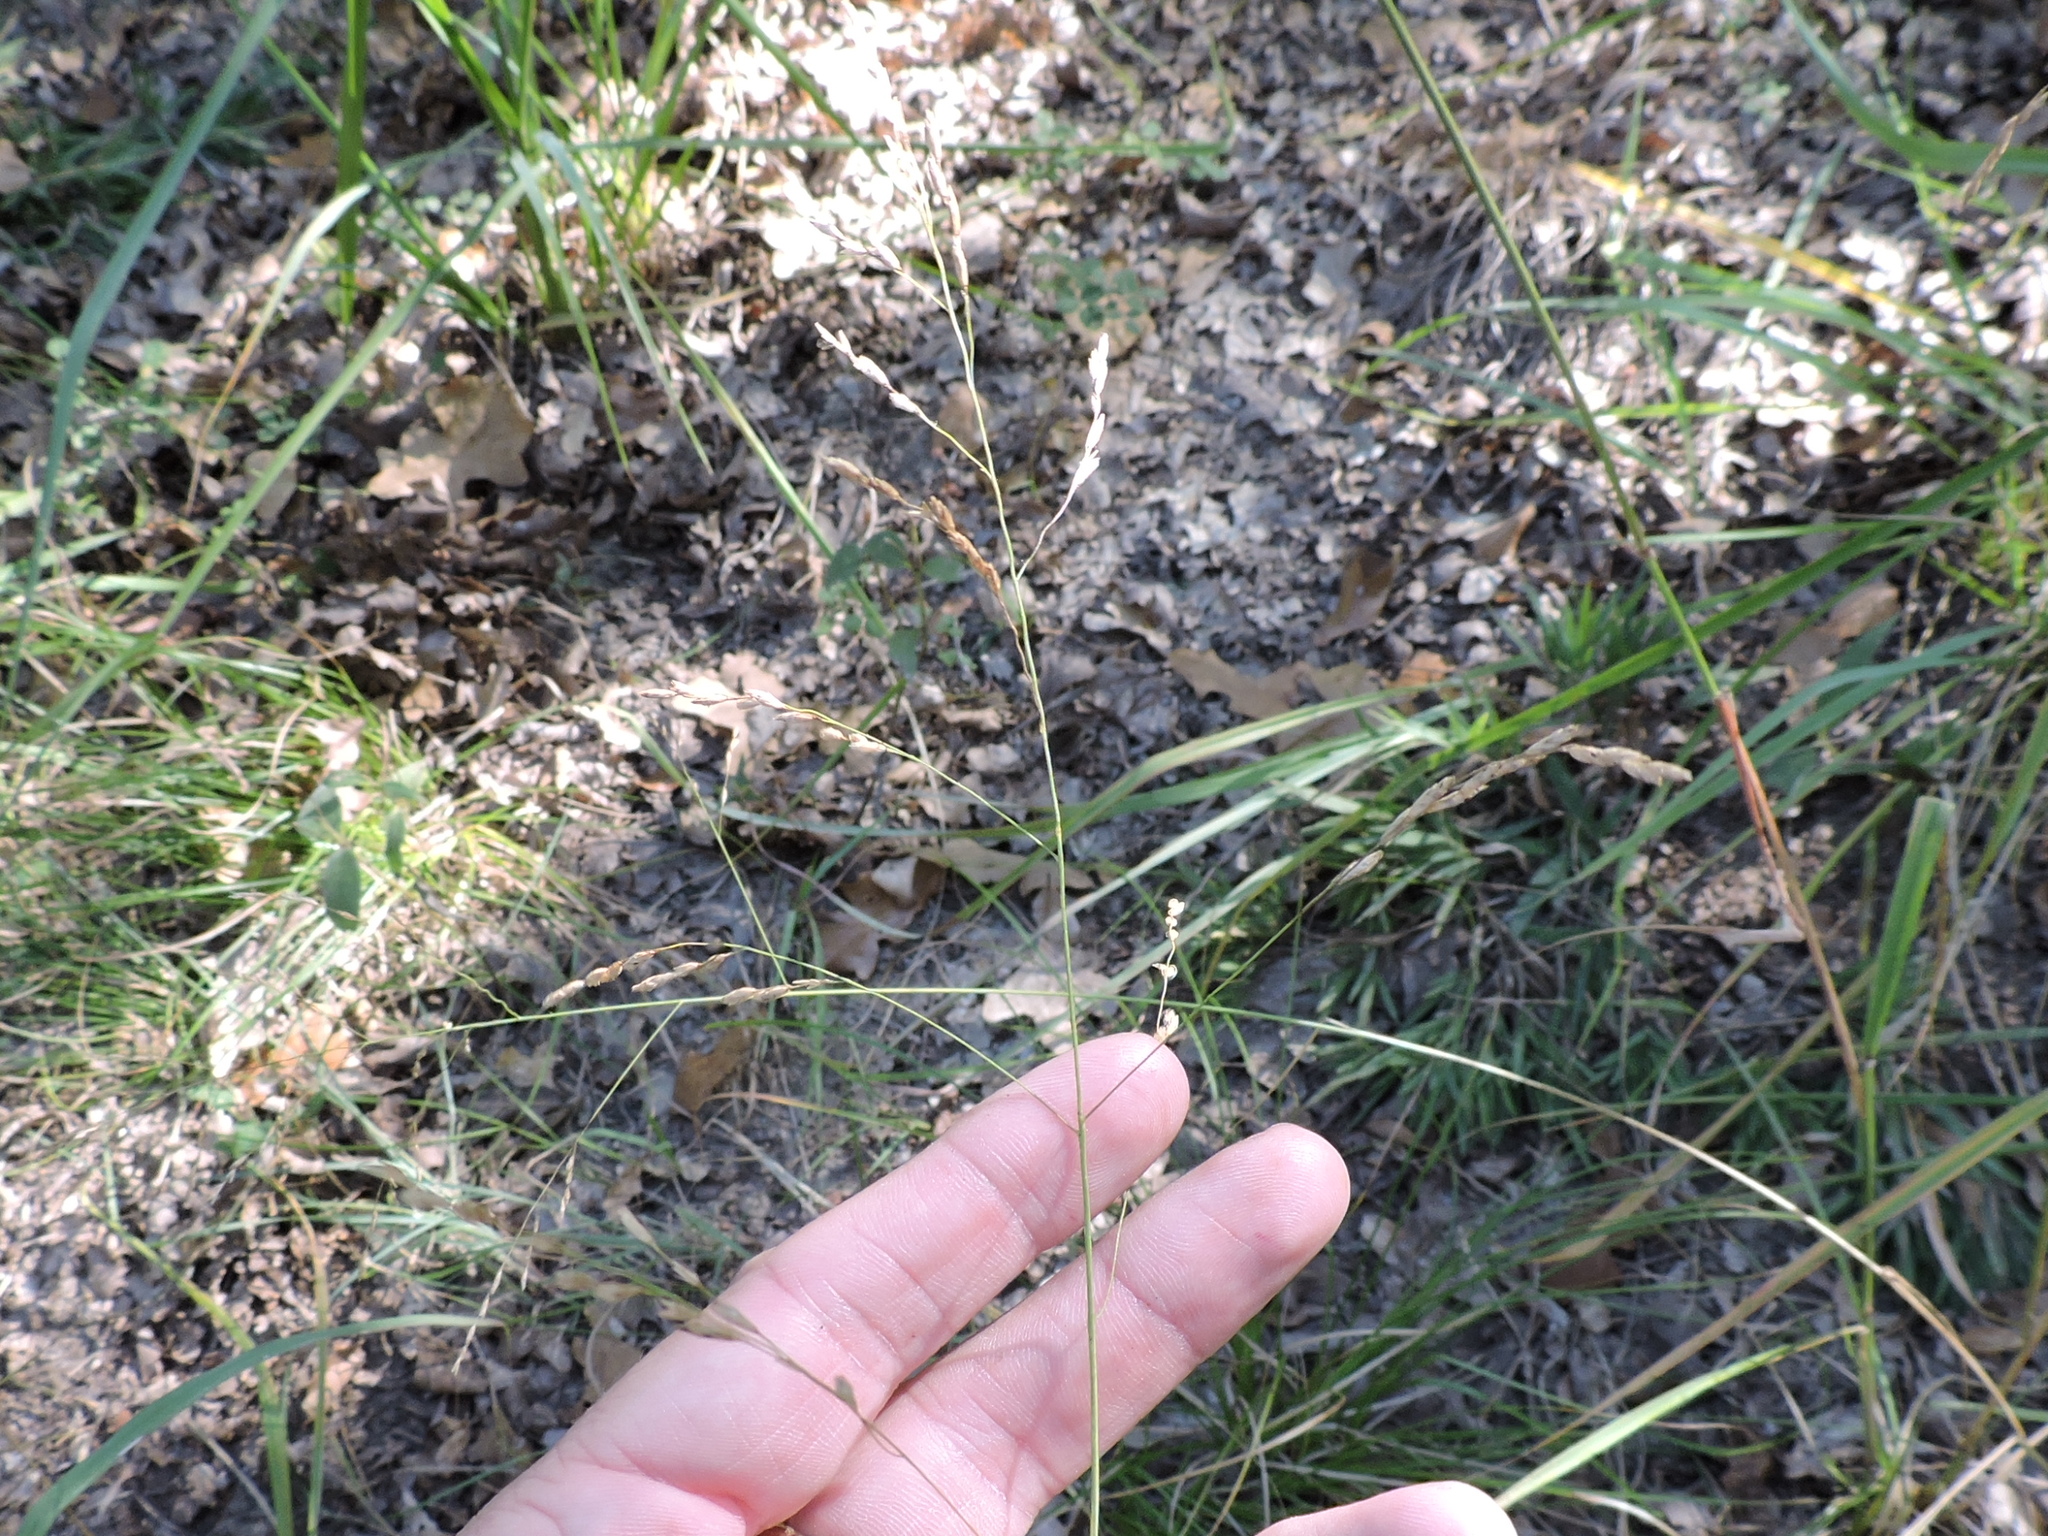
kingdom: Plantae
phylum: Tracheophyta
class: Liliopsida
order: Poales
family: Poaceae
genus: Tridens
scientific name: Tridens flavus
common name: Purpletop
